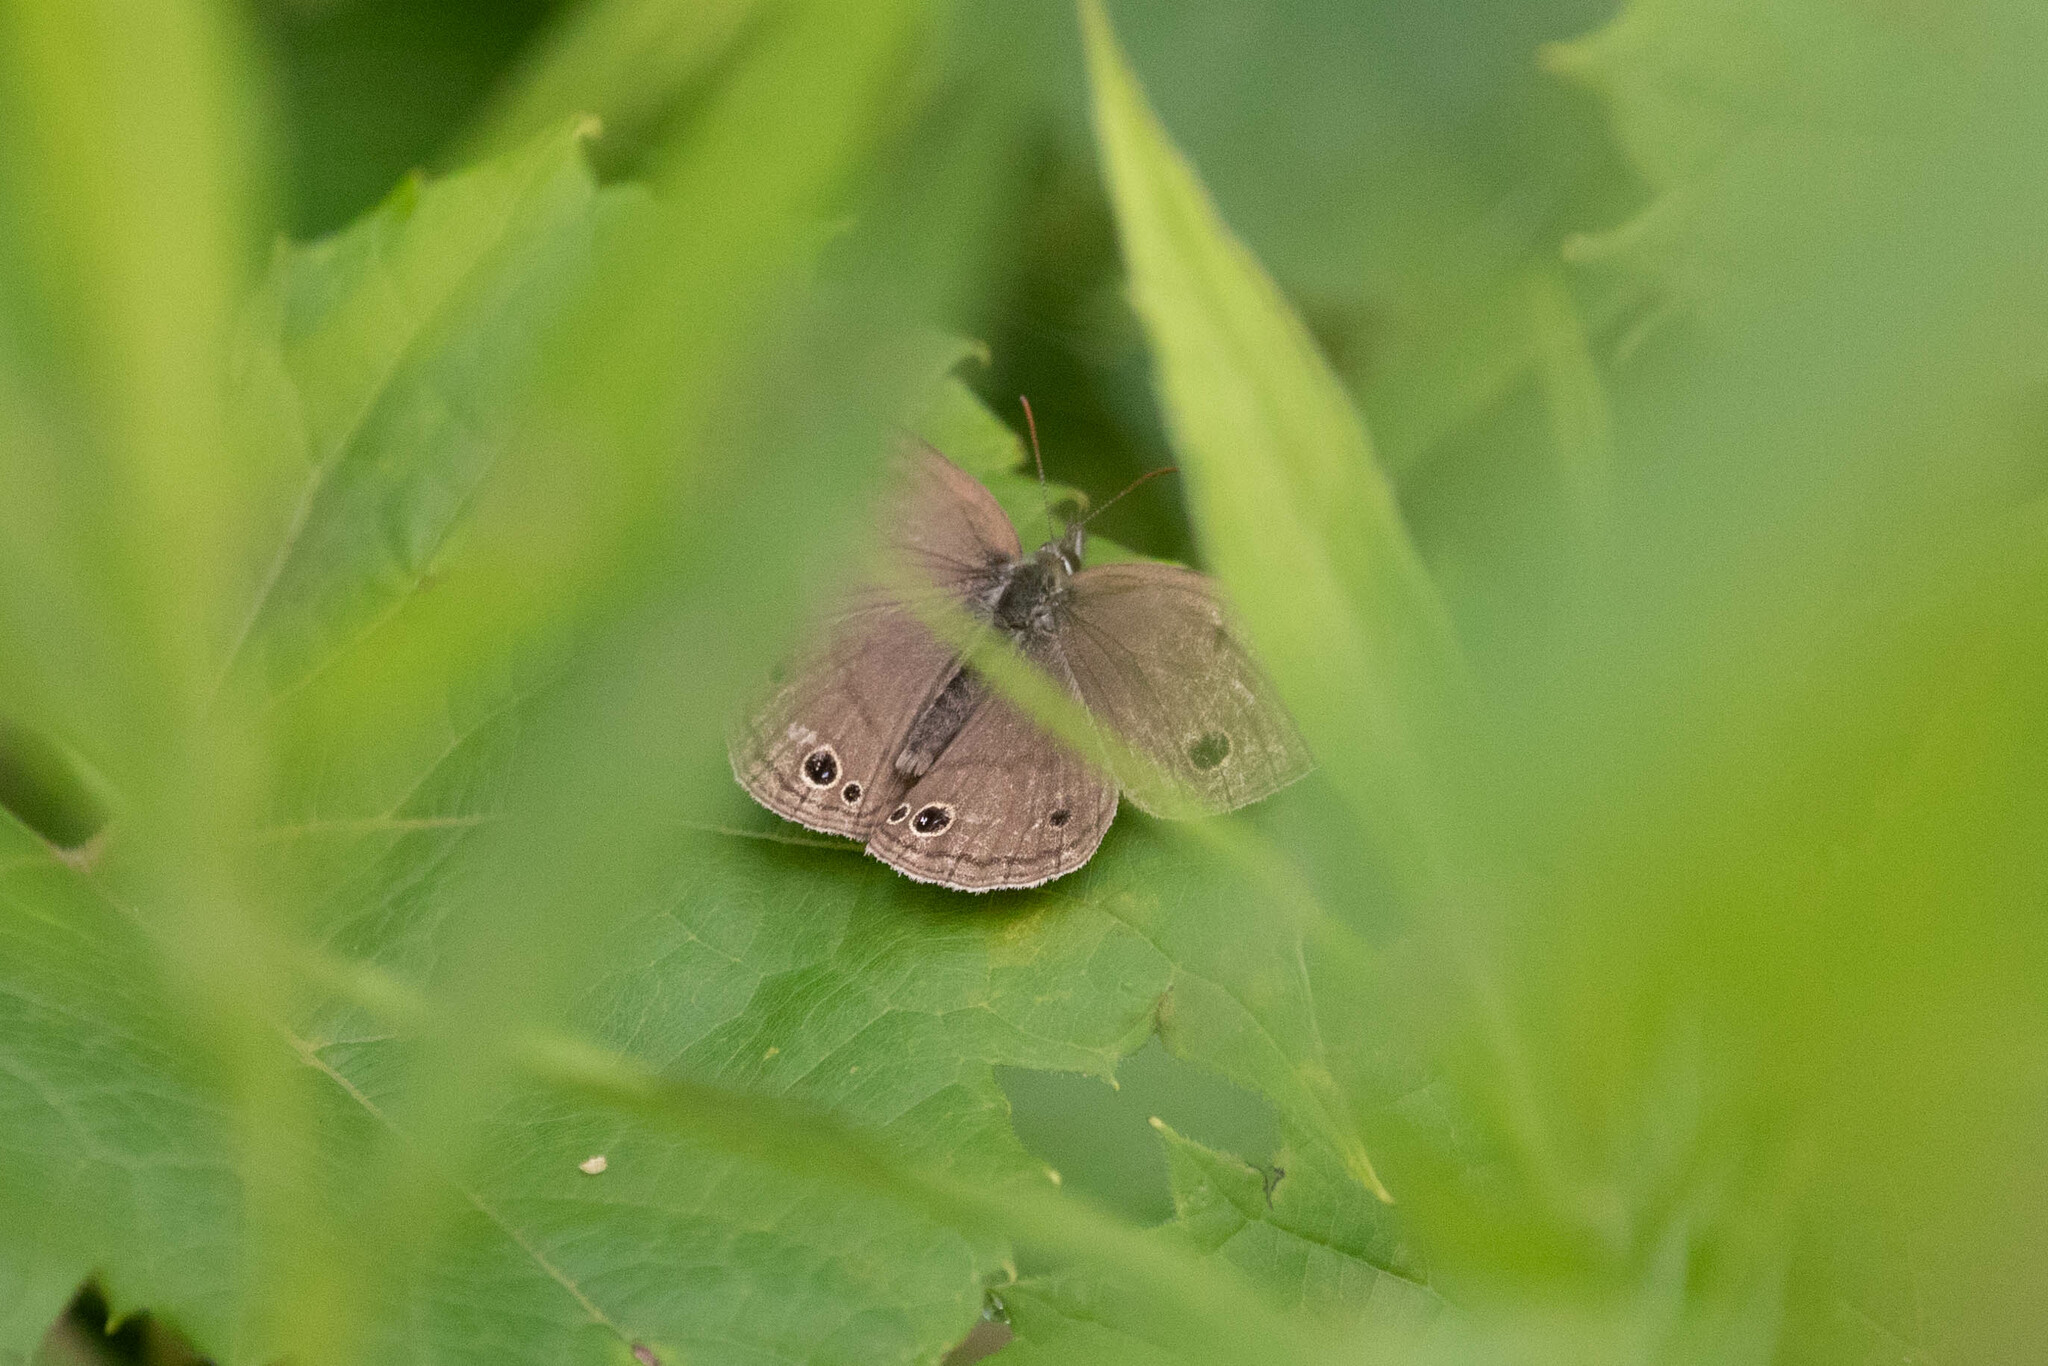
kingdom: Animalia
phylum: Arthropoda
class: Insecta
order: Lepidoptera
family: Nymphalidae
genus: Euptychia
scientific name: Euptychia cymela
